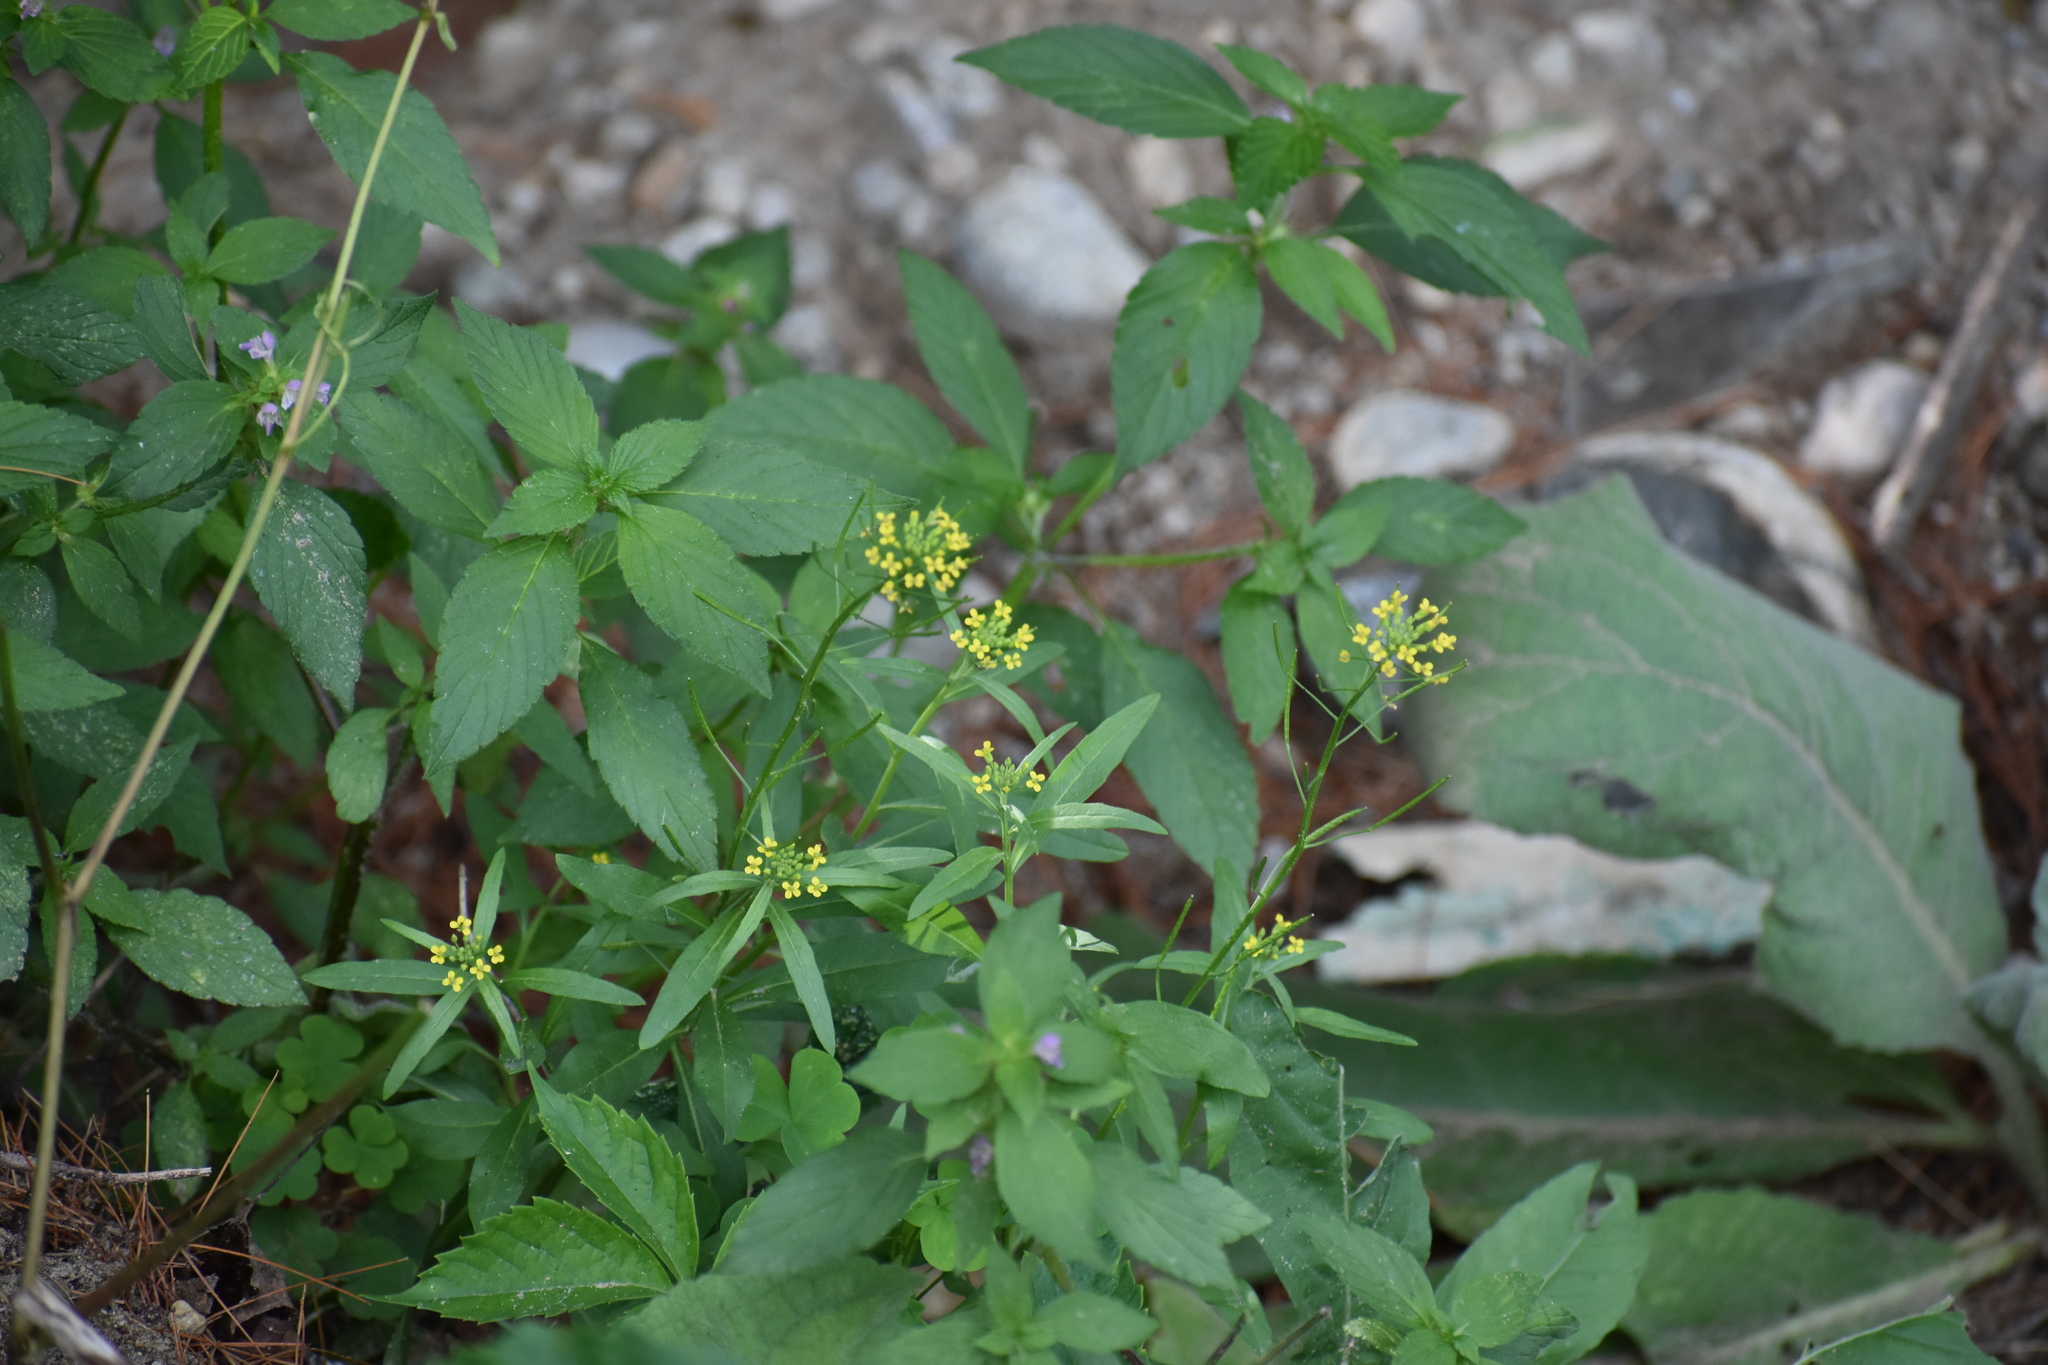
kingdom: Plantae
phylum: Tracheophyta
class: Magnoliopsida
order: Brassicales
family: Brassicaceae
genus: Erysimum
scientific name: Erysimum cheiranthoides
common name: Treacle mustard
